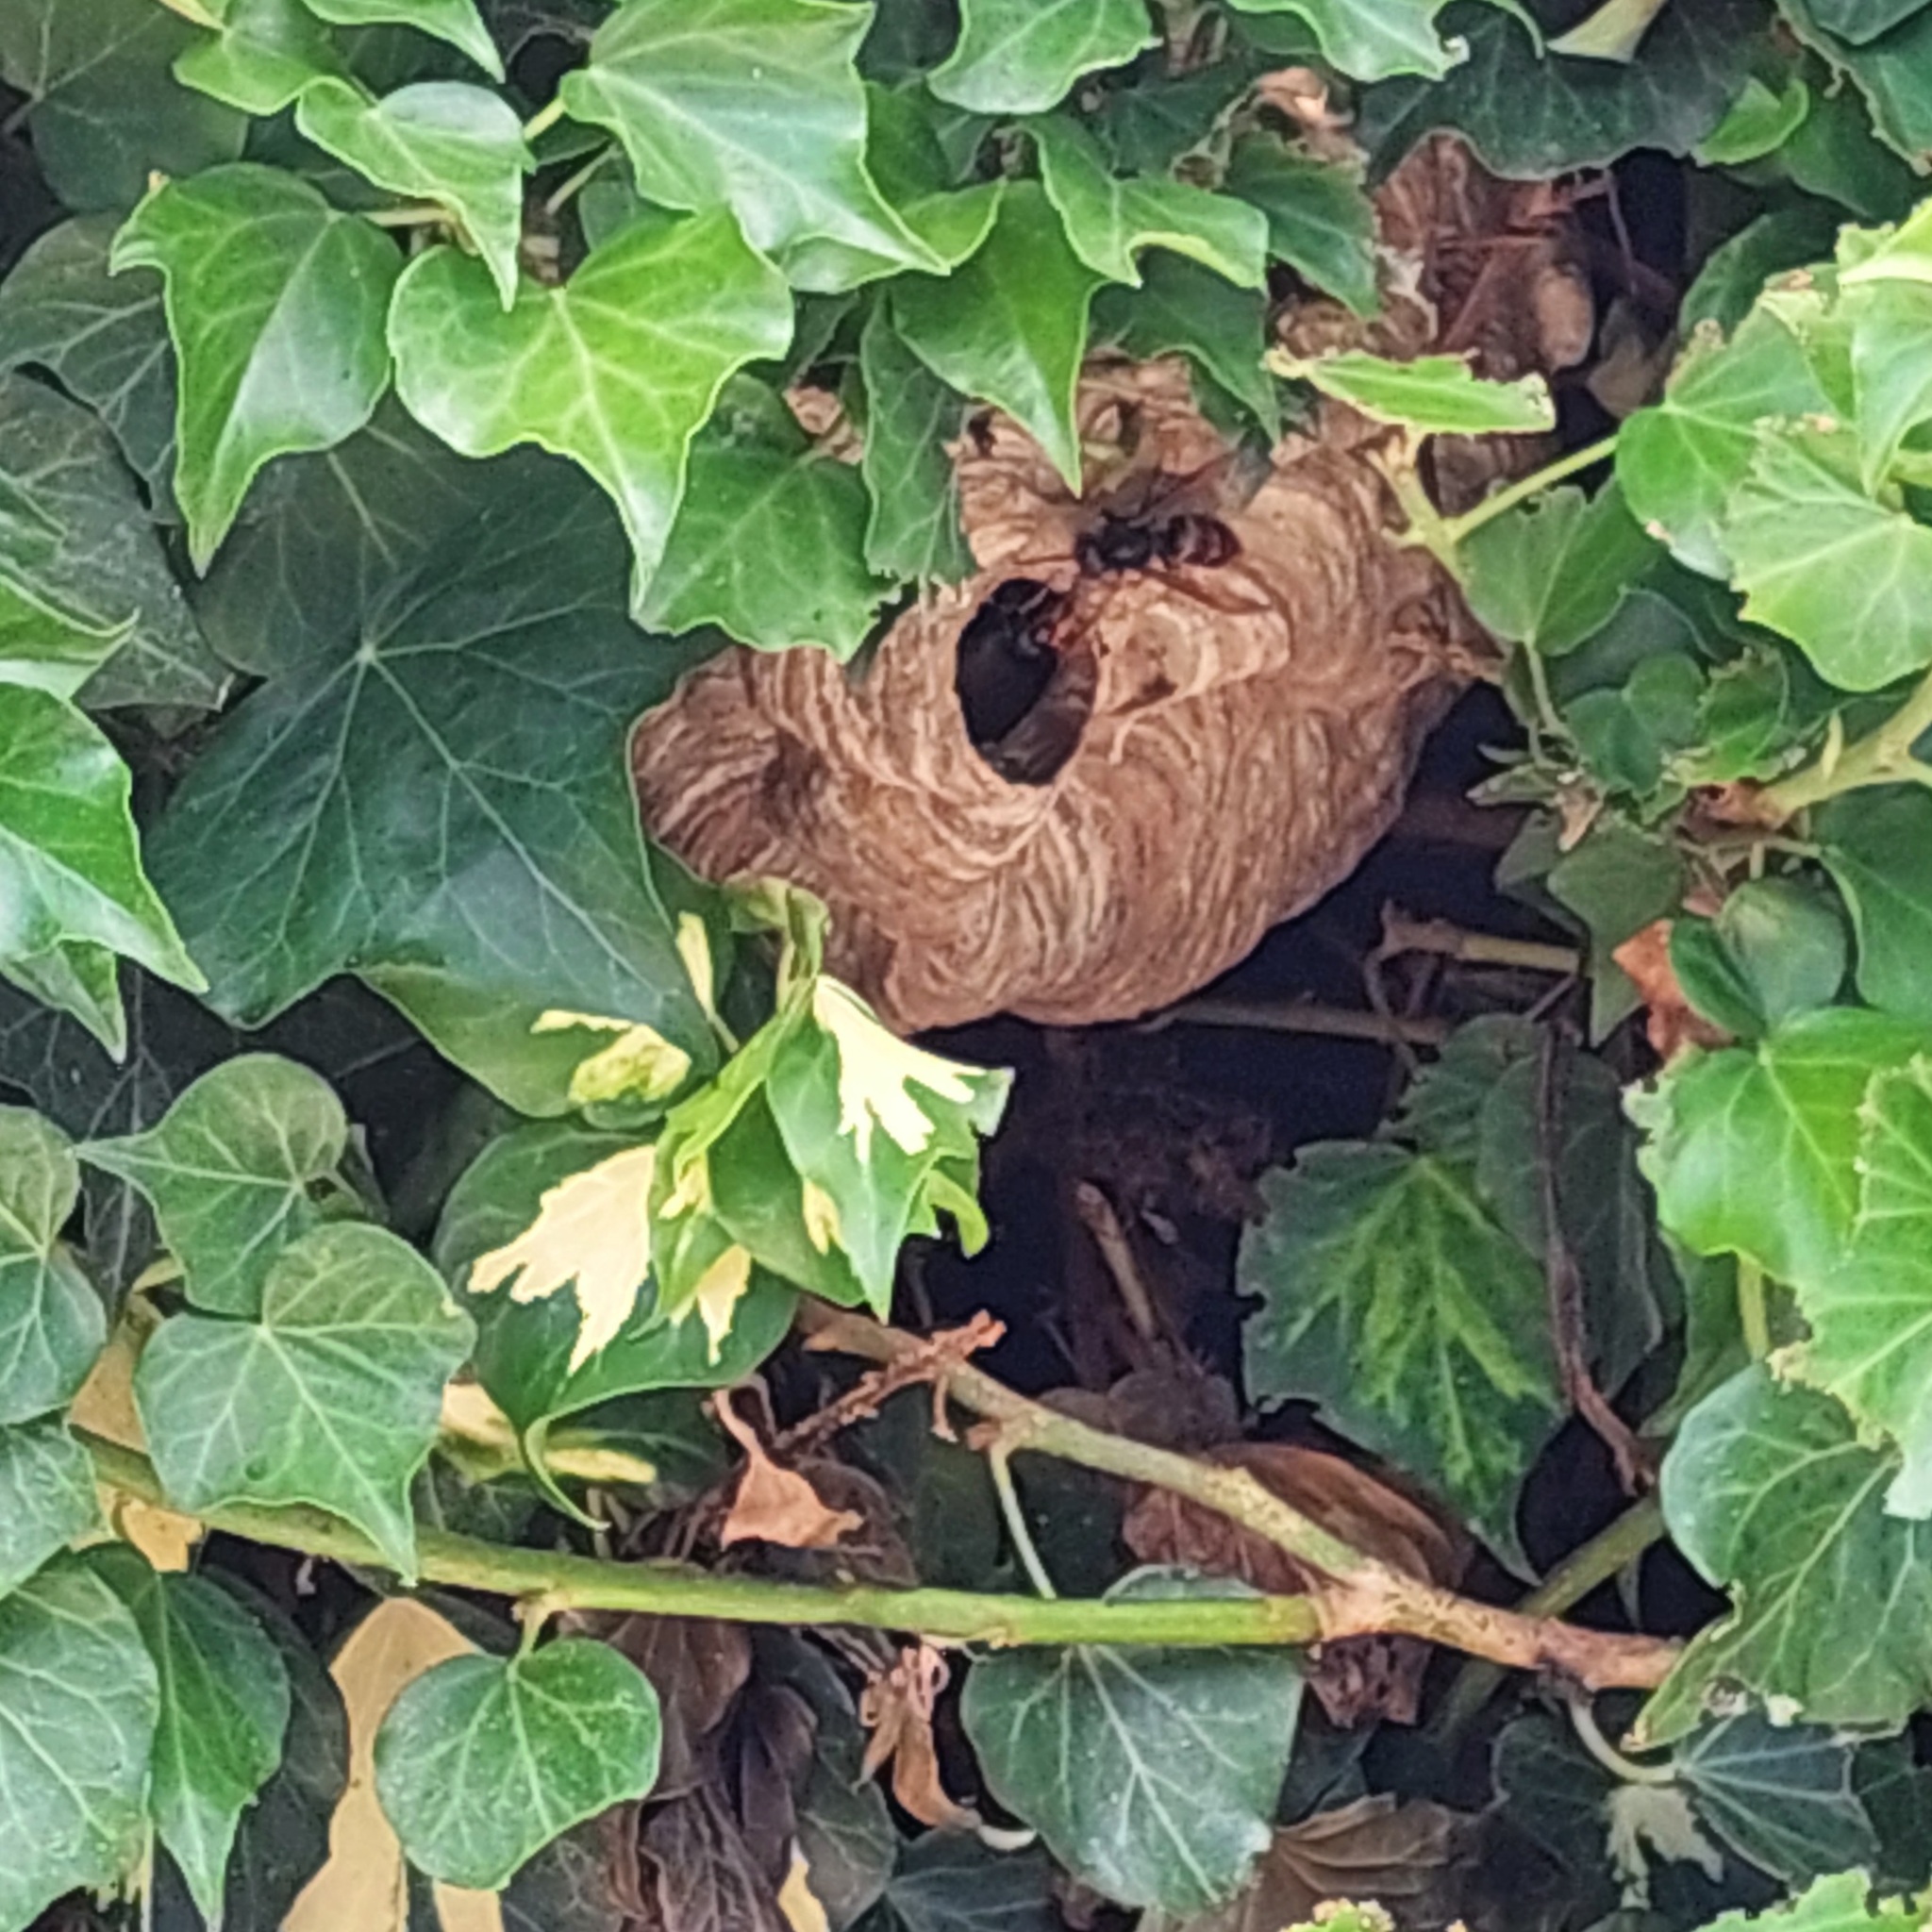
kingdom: Animalia
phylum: Arthropoda
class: Insecta
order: Hymenoptera
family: Vespidae
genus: Vespa
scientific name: Vespa velutina
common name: Asian hornet
